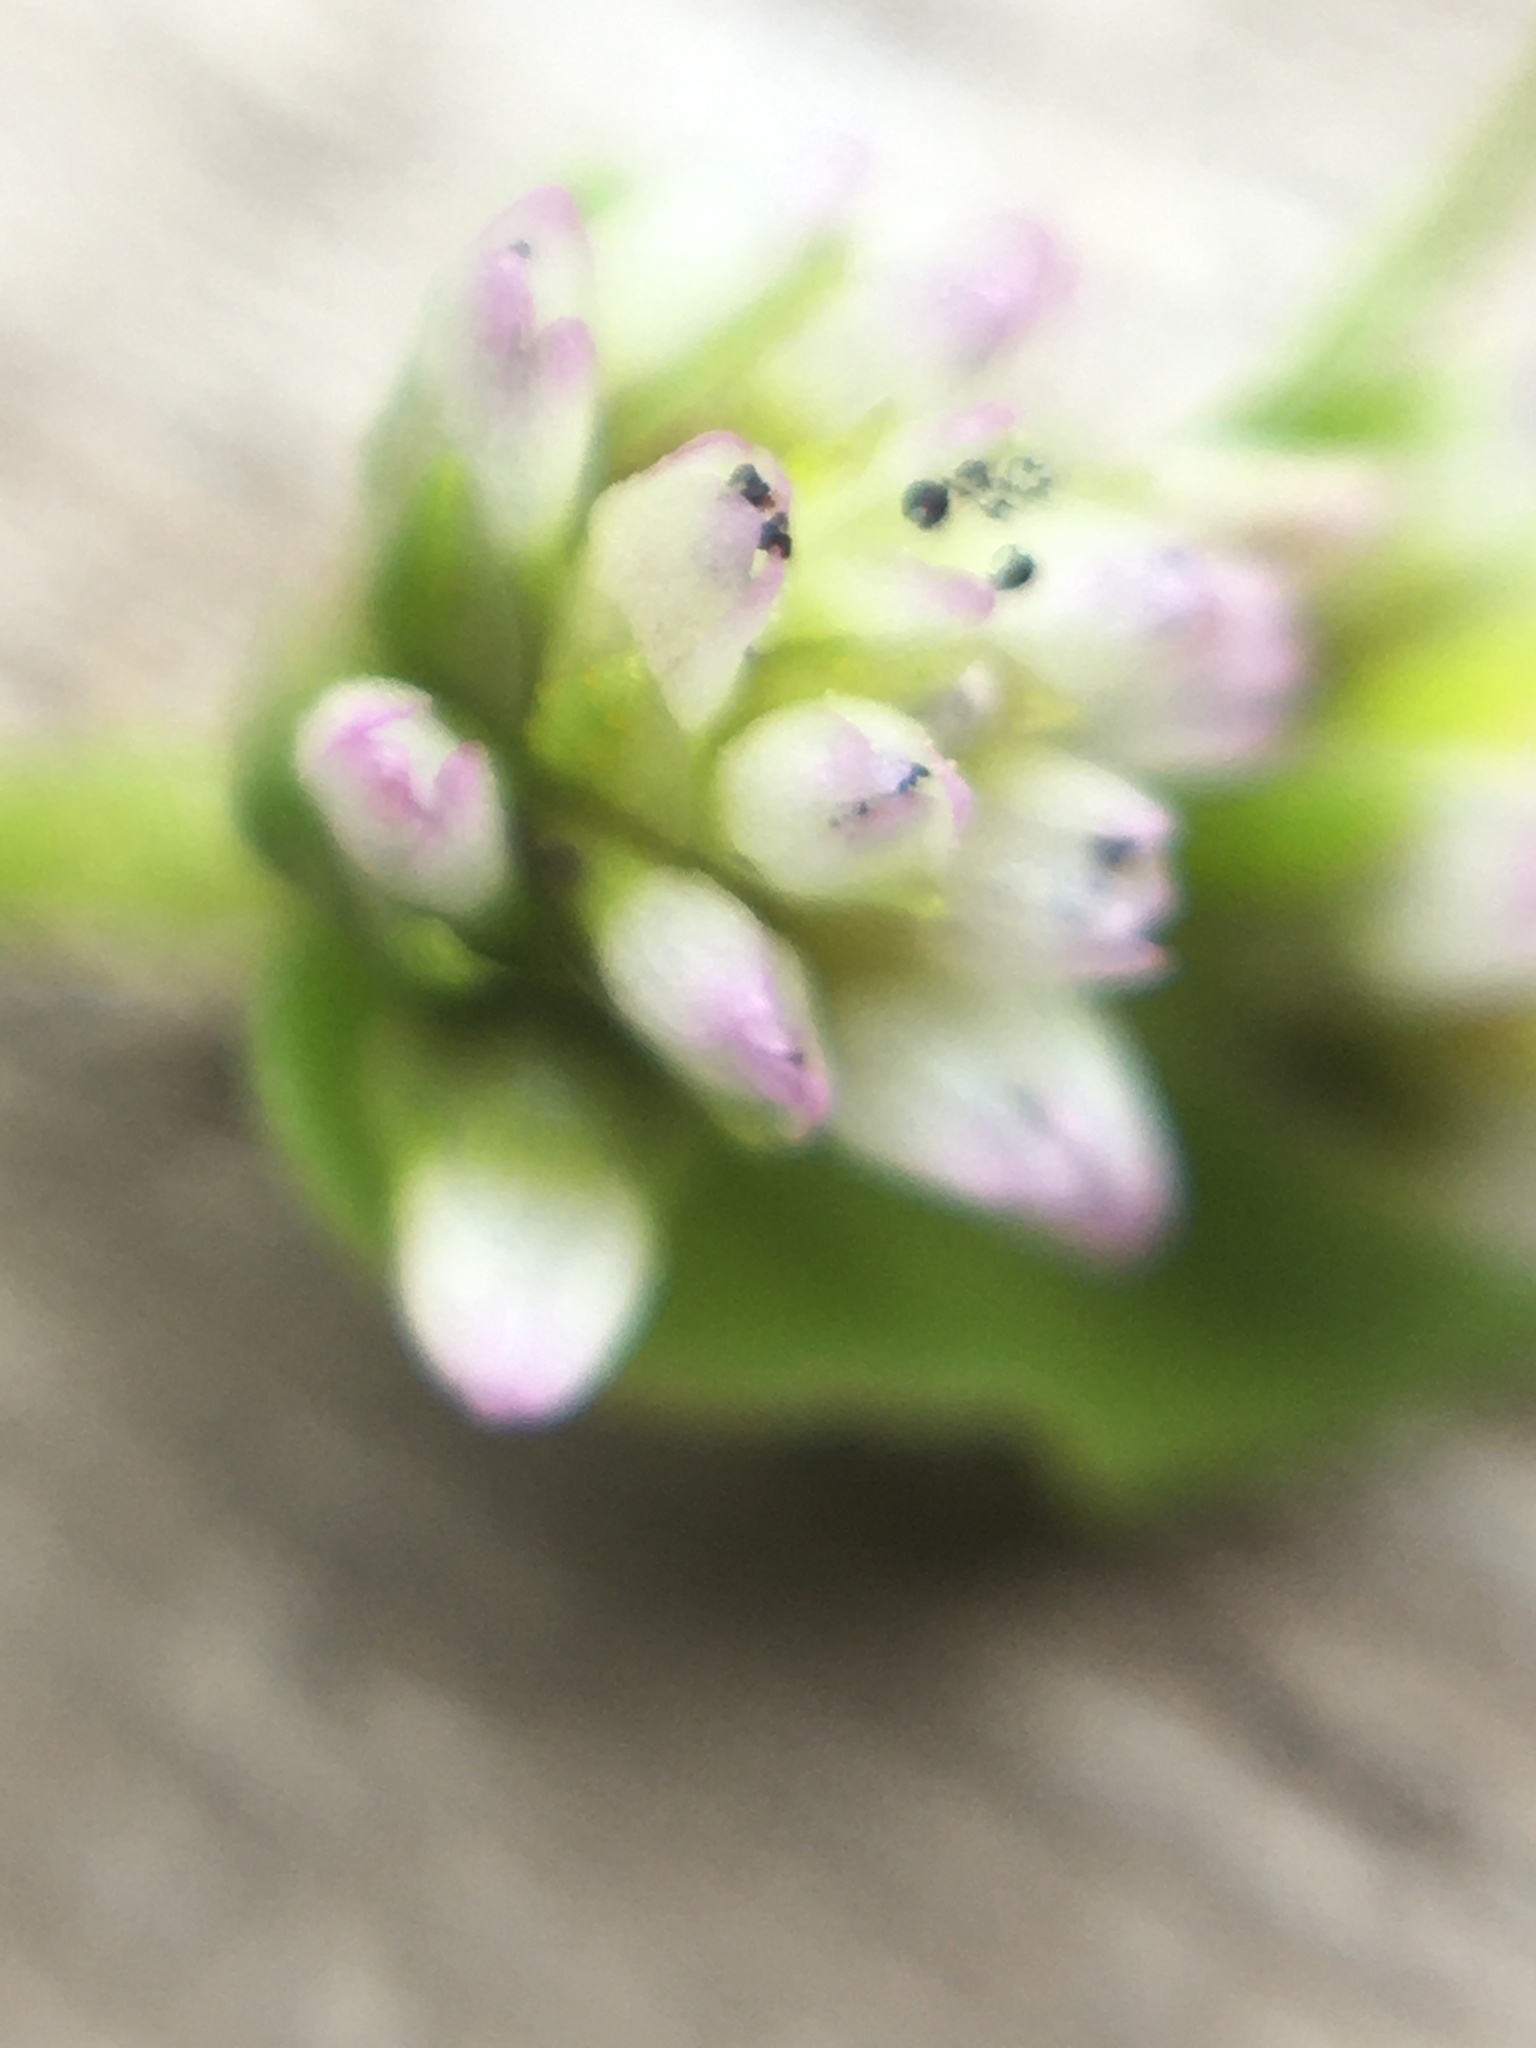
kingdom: Plantae
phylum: Tracheophyta
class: Magnoliopsida
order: Caryophyllales
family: Polygonaceae
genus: Persicaria
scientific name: Persicaria nepalensis
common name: Nepal persicaria
